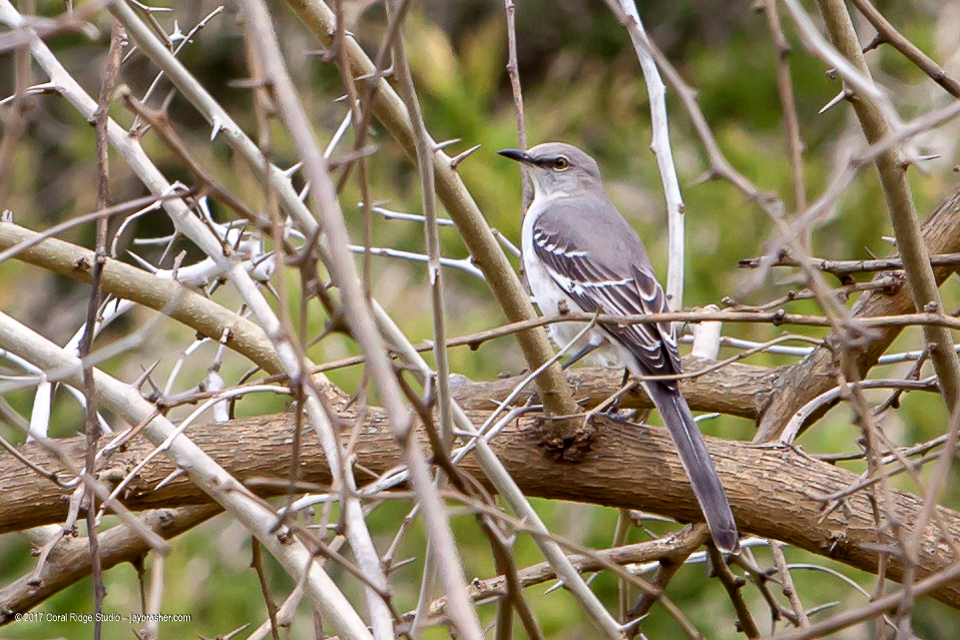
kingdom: Animalia
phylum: Chordata
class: Aves
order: Passeriformes
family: Mimidae
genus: Mimus
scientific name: Mimus polyglottos
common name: Northern mockingbird
